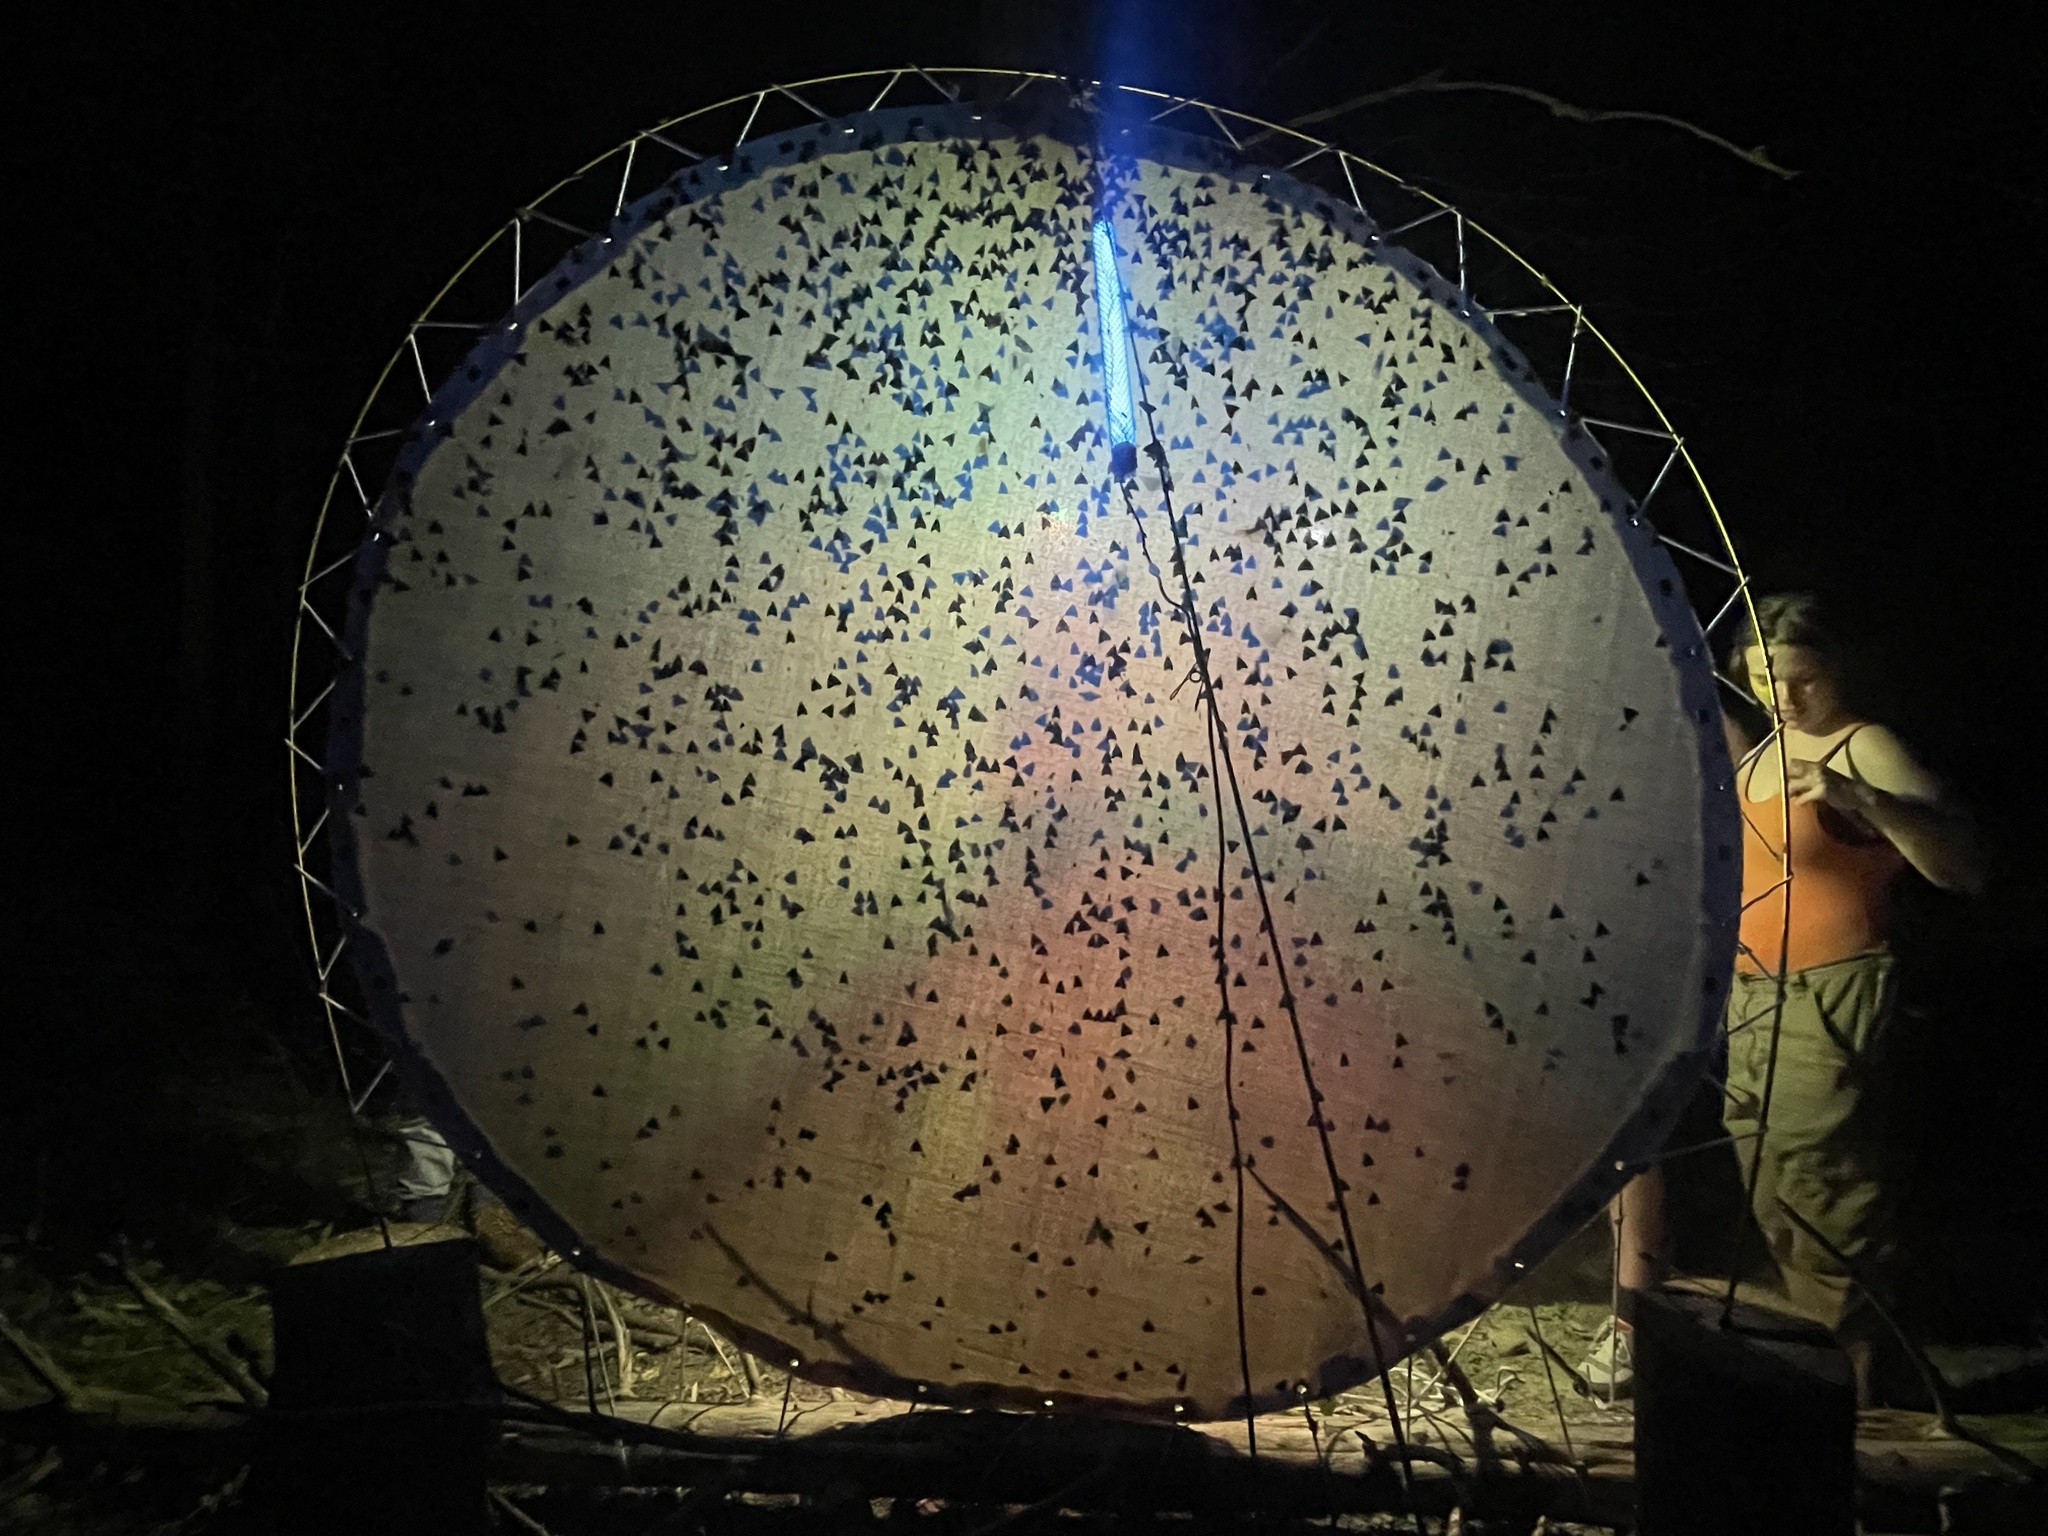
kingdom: Animalia
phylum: Arthropoda
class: Insecta
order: Lepidoptera
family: Erebidae
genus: Lymantria
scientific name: Lymantria dispar
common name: Gypsy moth
